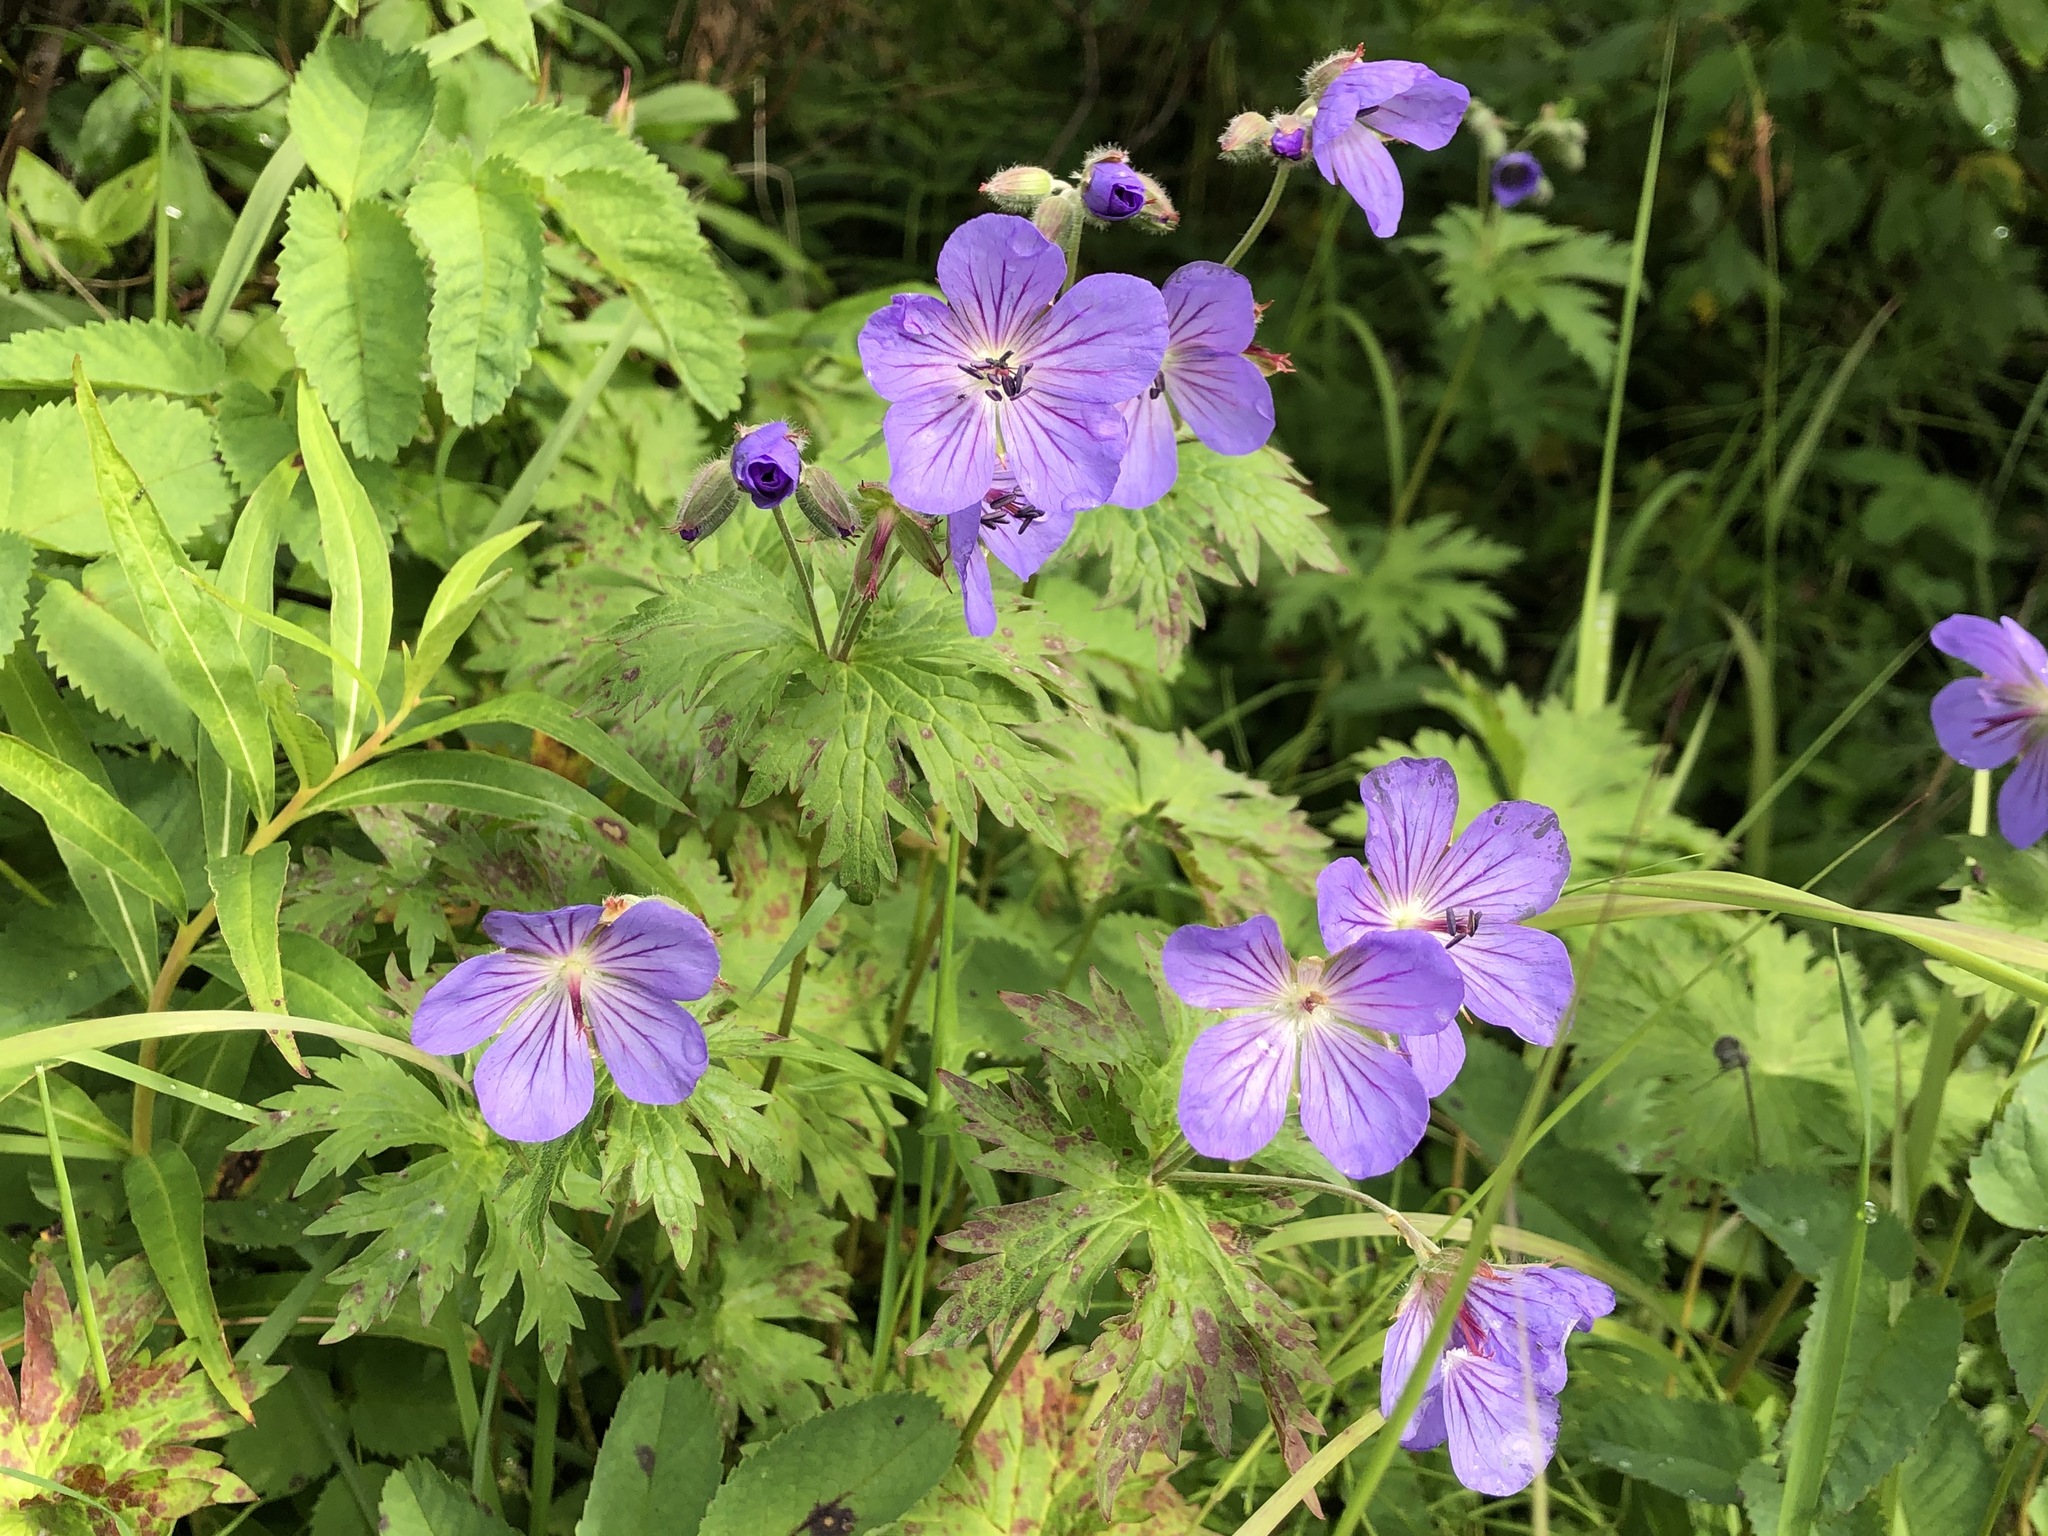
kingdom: Plantae
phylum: Tracheophyta
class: Magnoliopsida
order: Geraniales
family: Geraniaceae
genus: Geranium
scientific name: Geranium erianthum
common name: Northern crane's-bill
